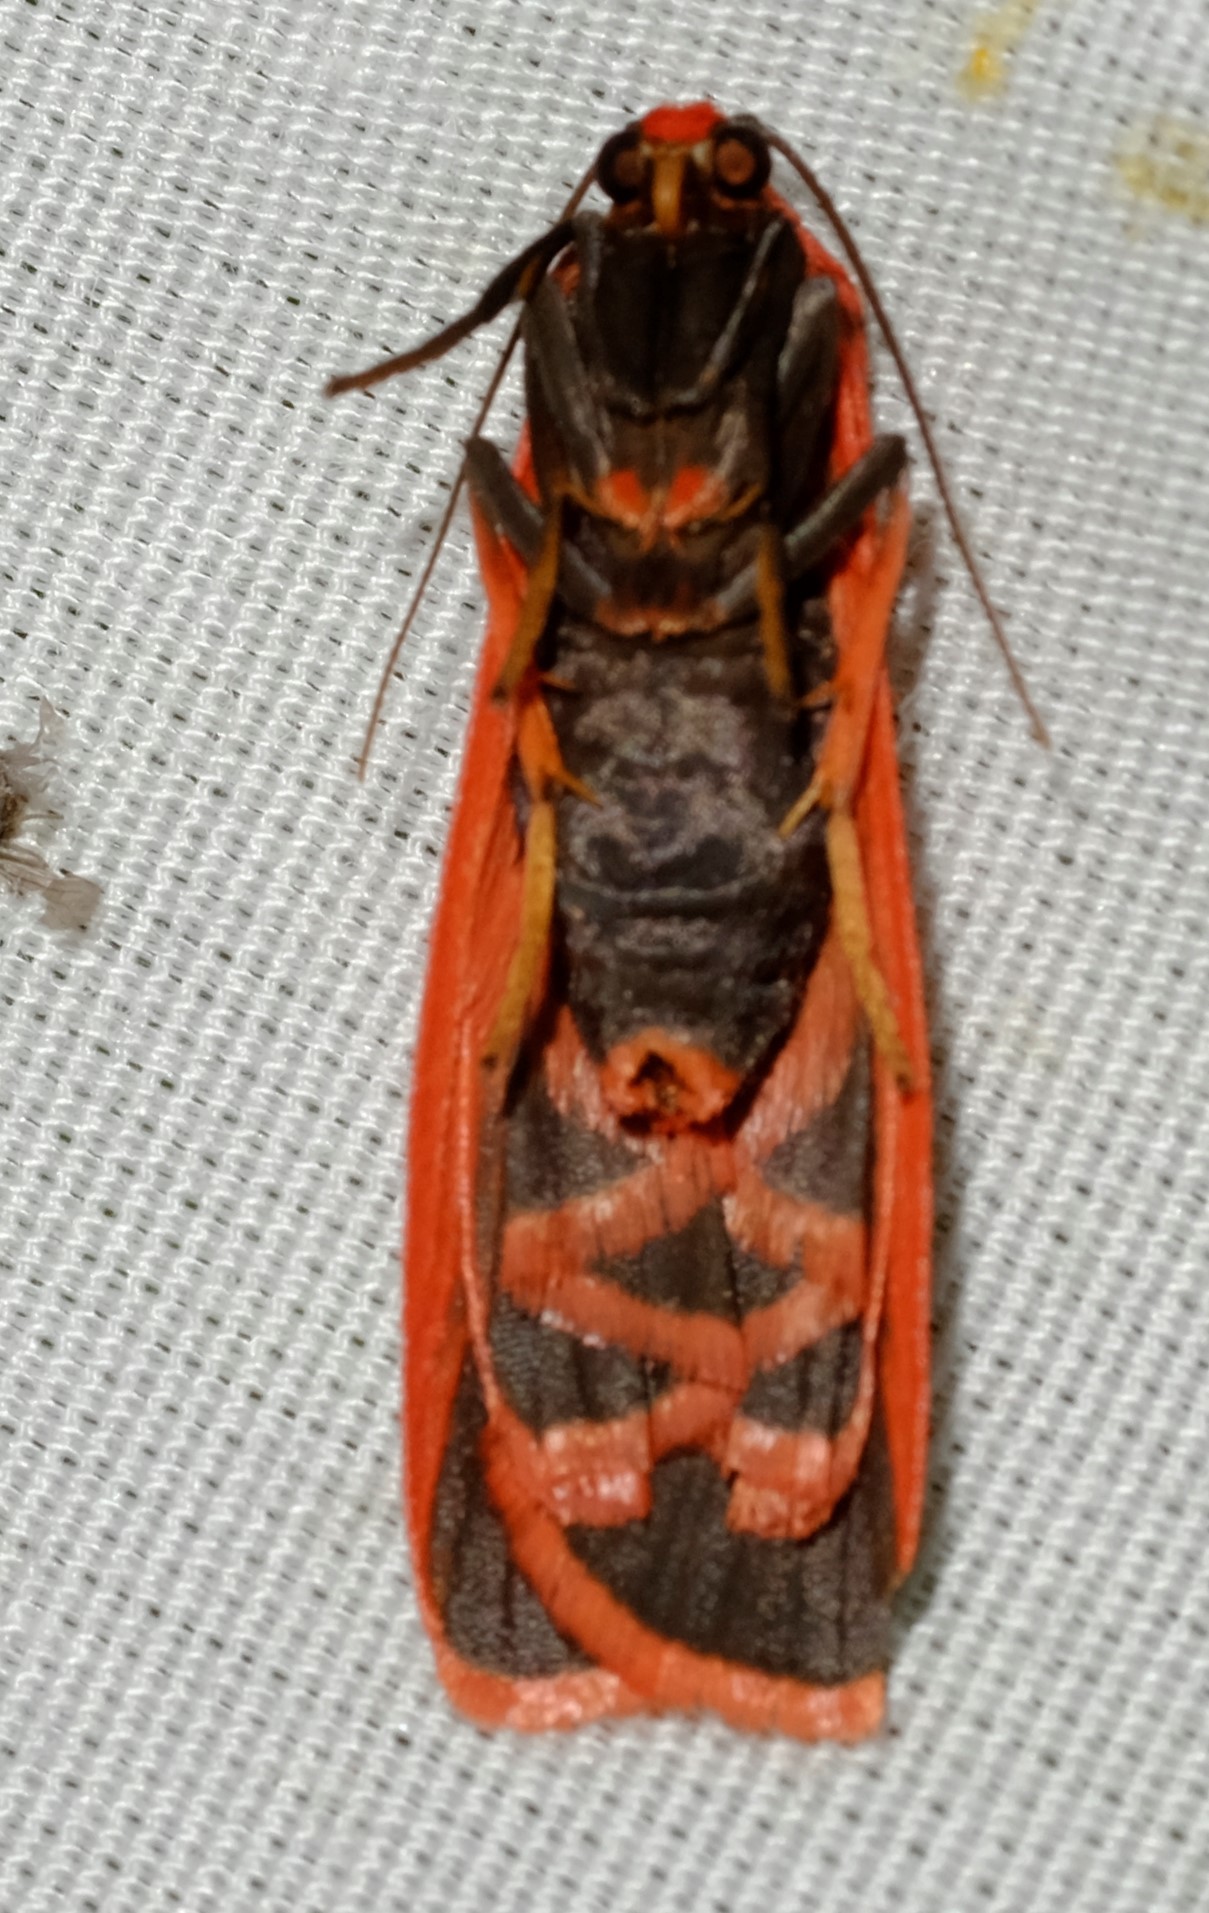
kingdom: Animalia
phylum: Arthropoda
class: Insecta
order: Lepidoptera
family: Erebidae
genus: Scoliacma
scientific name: Scoliacma bicolora
